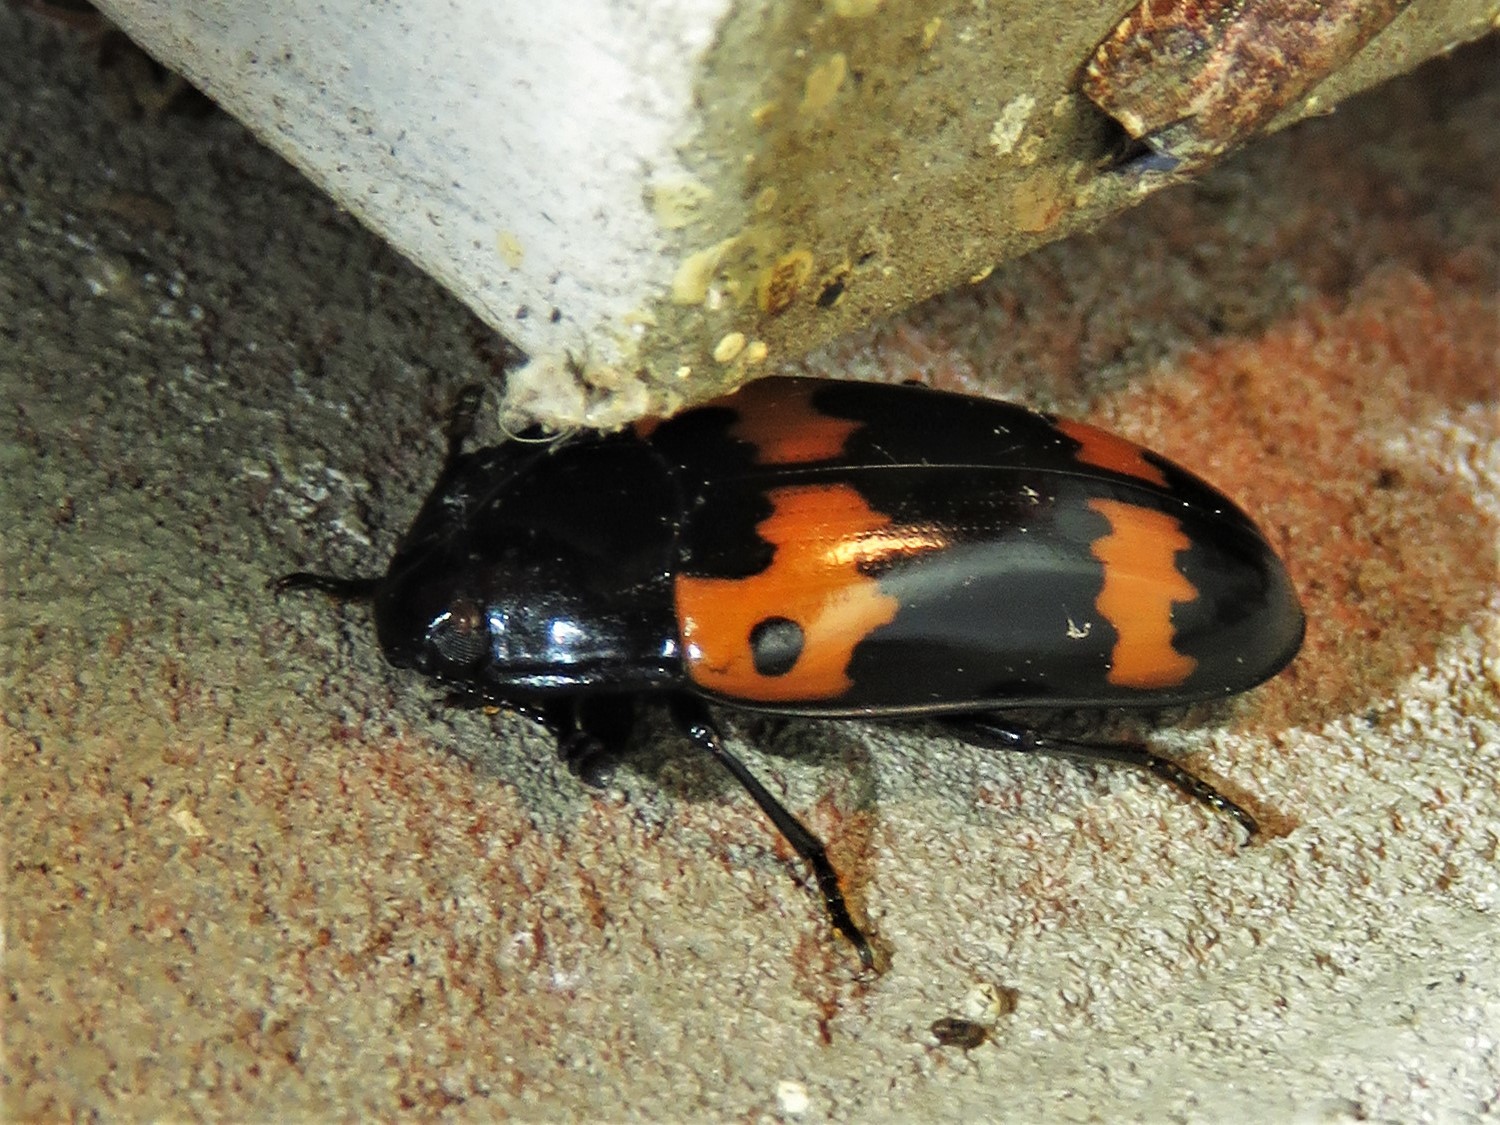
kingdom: Animalia
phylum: Arthropoda
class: Insecta
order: Coleoptera
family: Erotylidae
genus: Megalodacne
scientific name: Megalodacne fasciata
